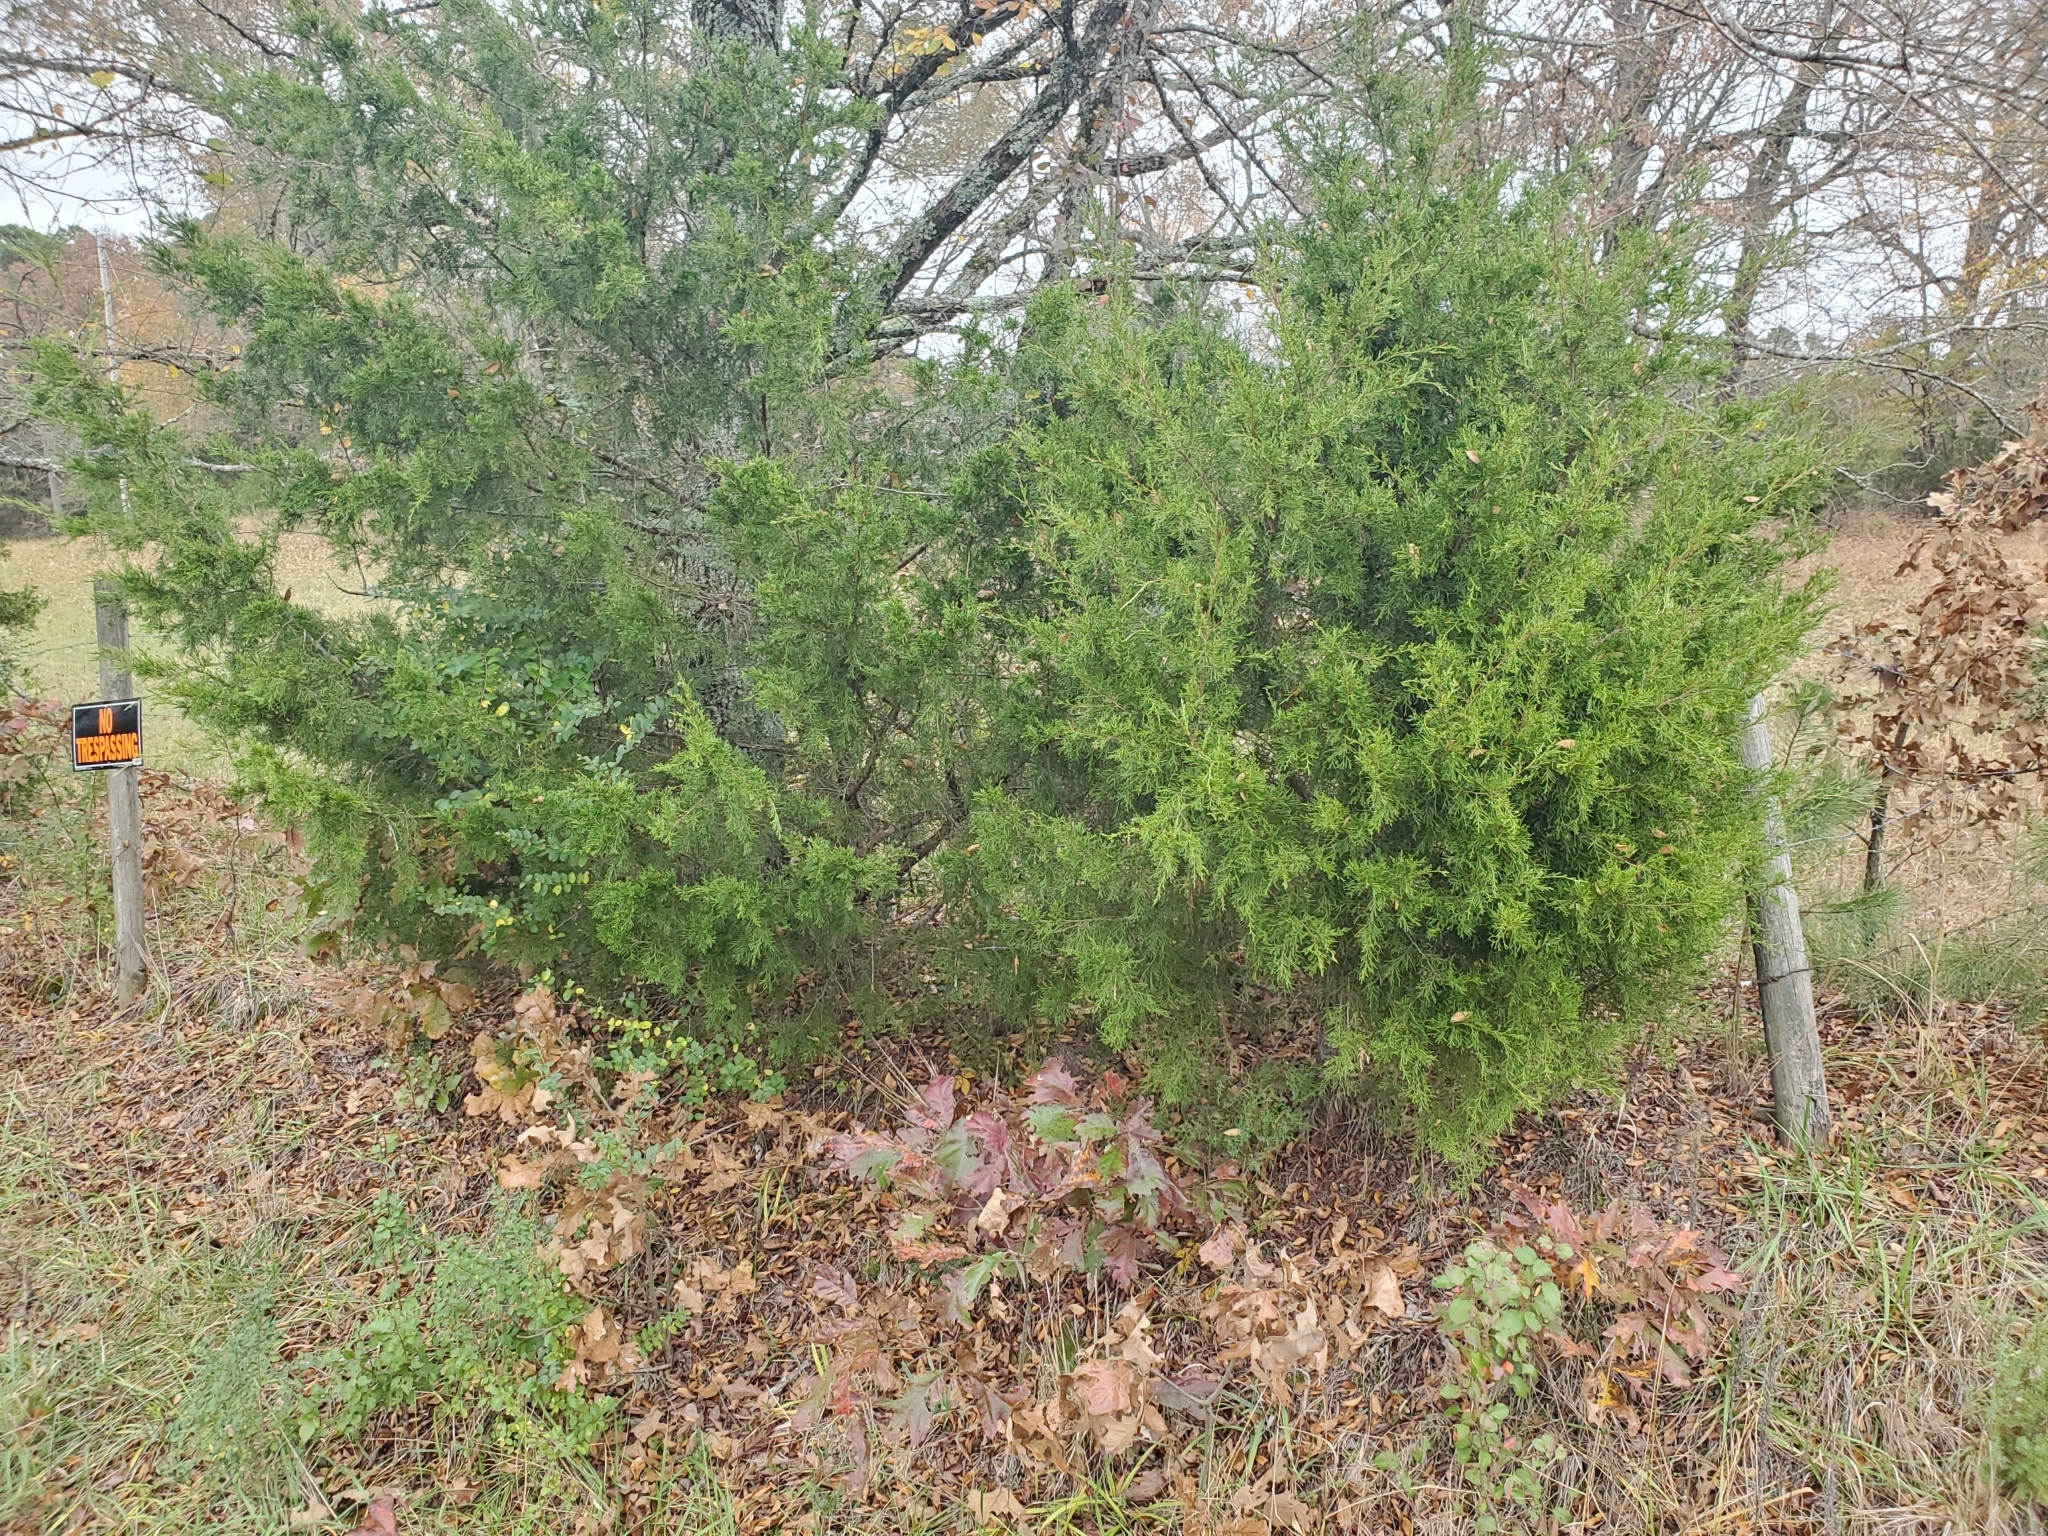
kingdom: Plantae
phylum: Tracheophyta
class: Pinopsida
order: Pinales
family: Cupressaceae
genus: Juniperus
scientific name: Juniperus virginiana
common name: Red juniper
